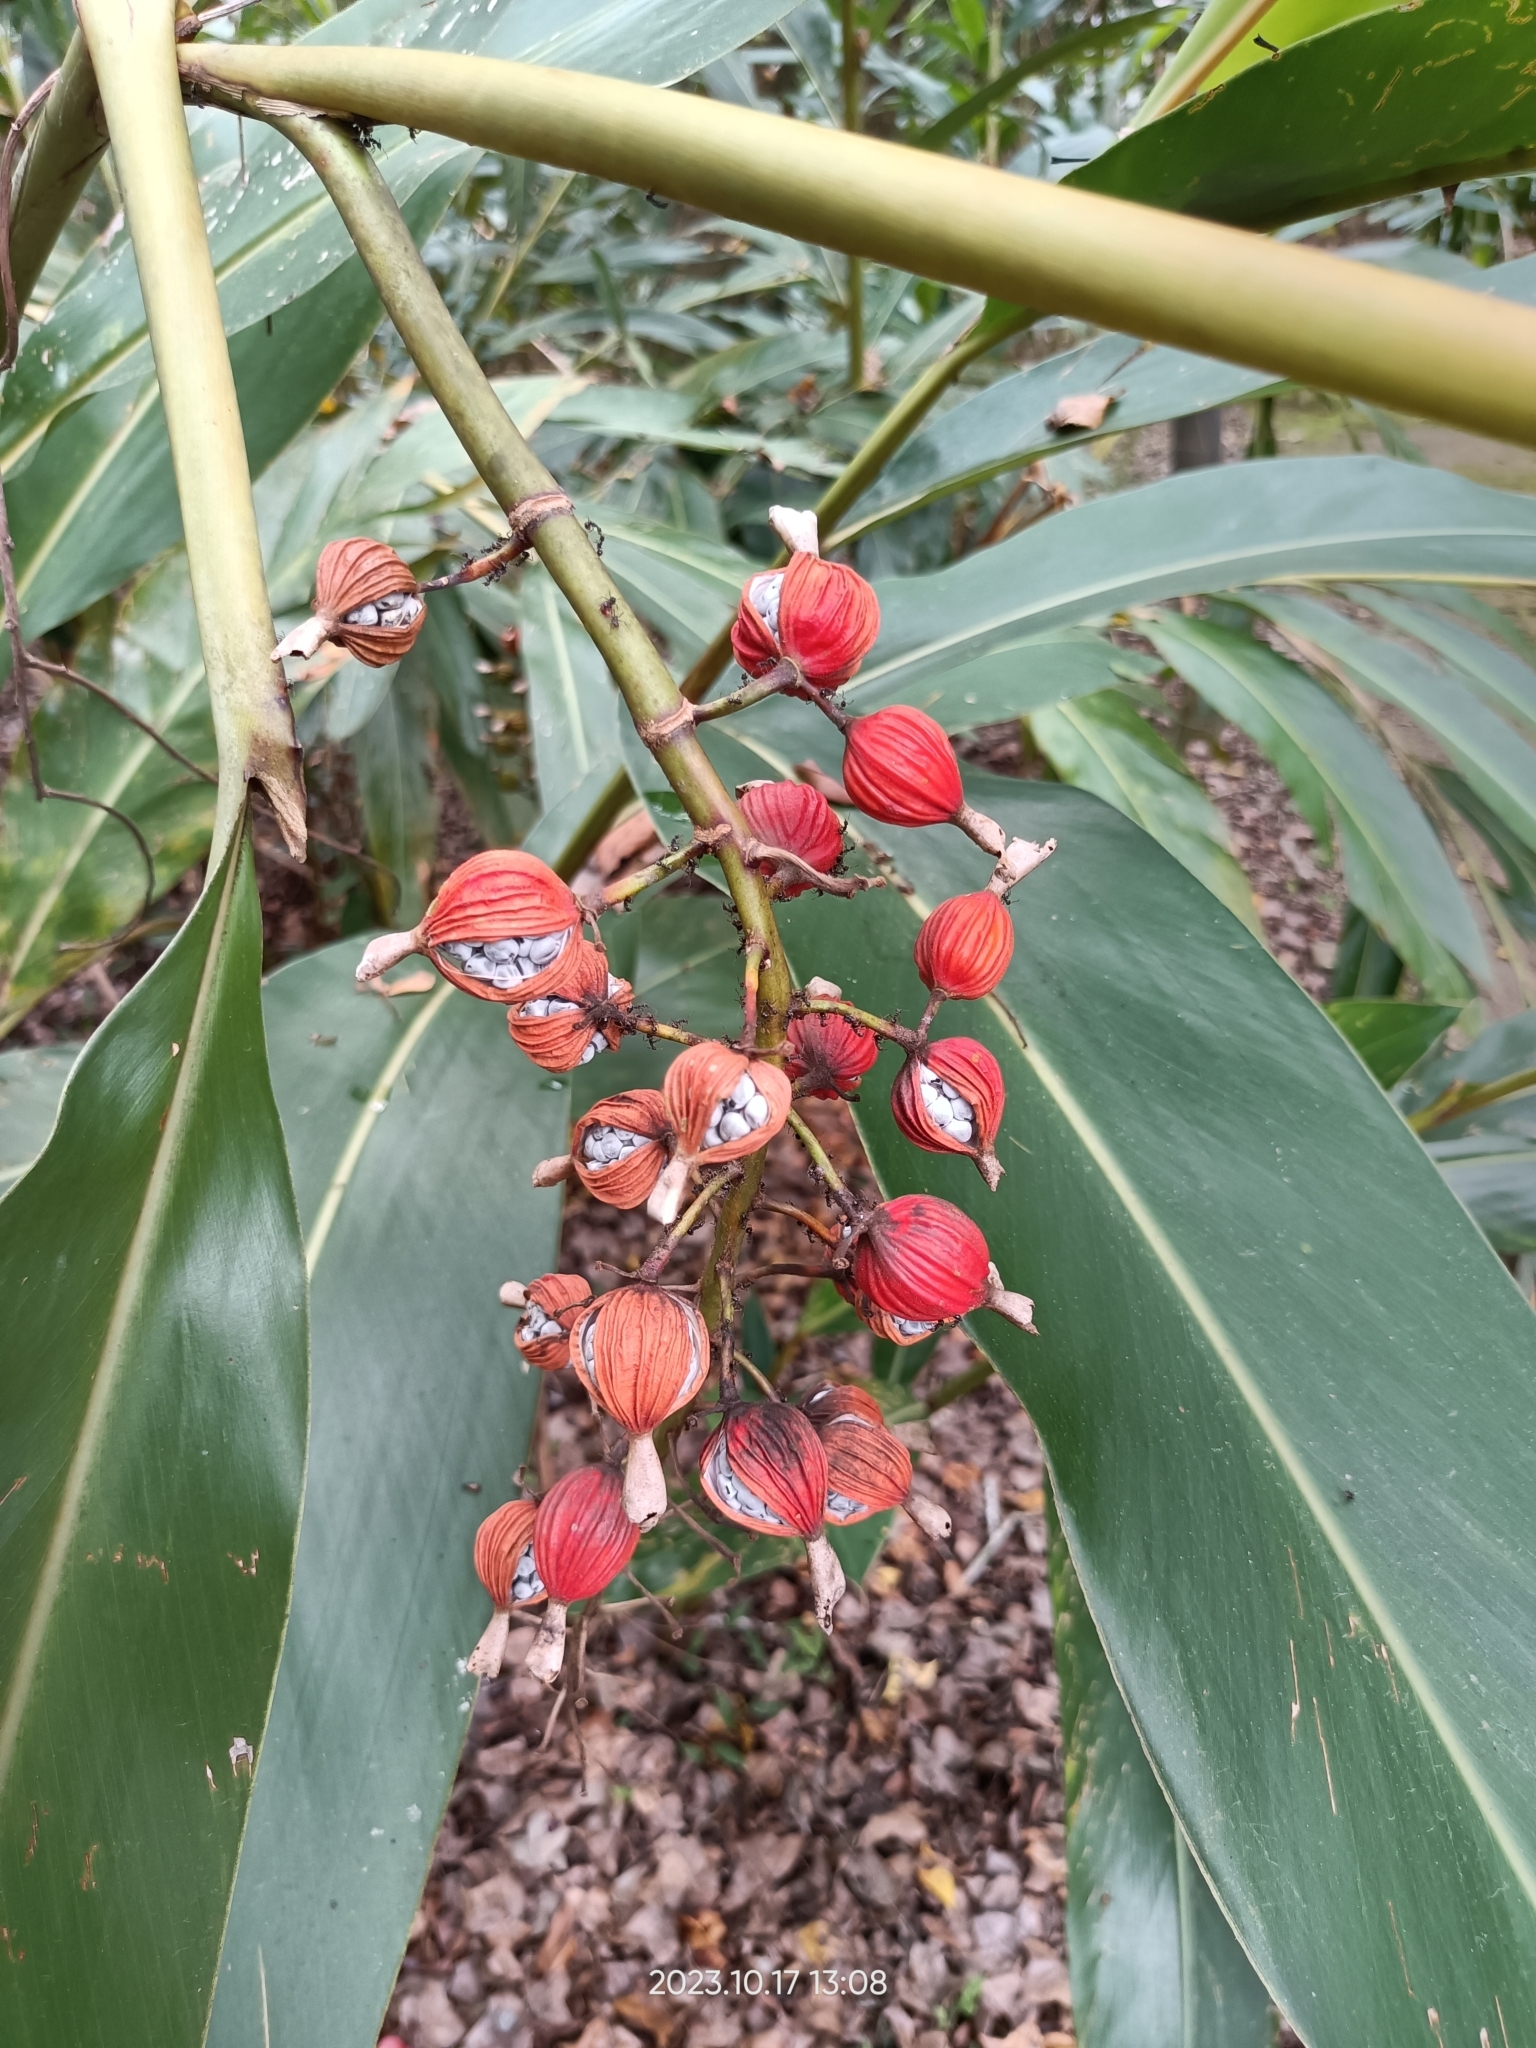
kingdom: Plantae
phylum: Tracheophyta
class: Liliopsida
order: Zingiberales
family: Zingiberaceae
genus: Alpinia
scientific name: Alpinia zerumbet
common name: Shellplant
